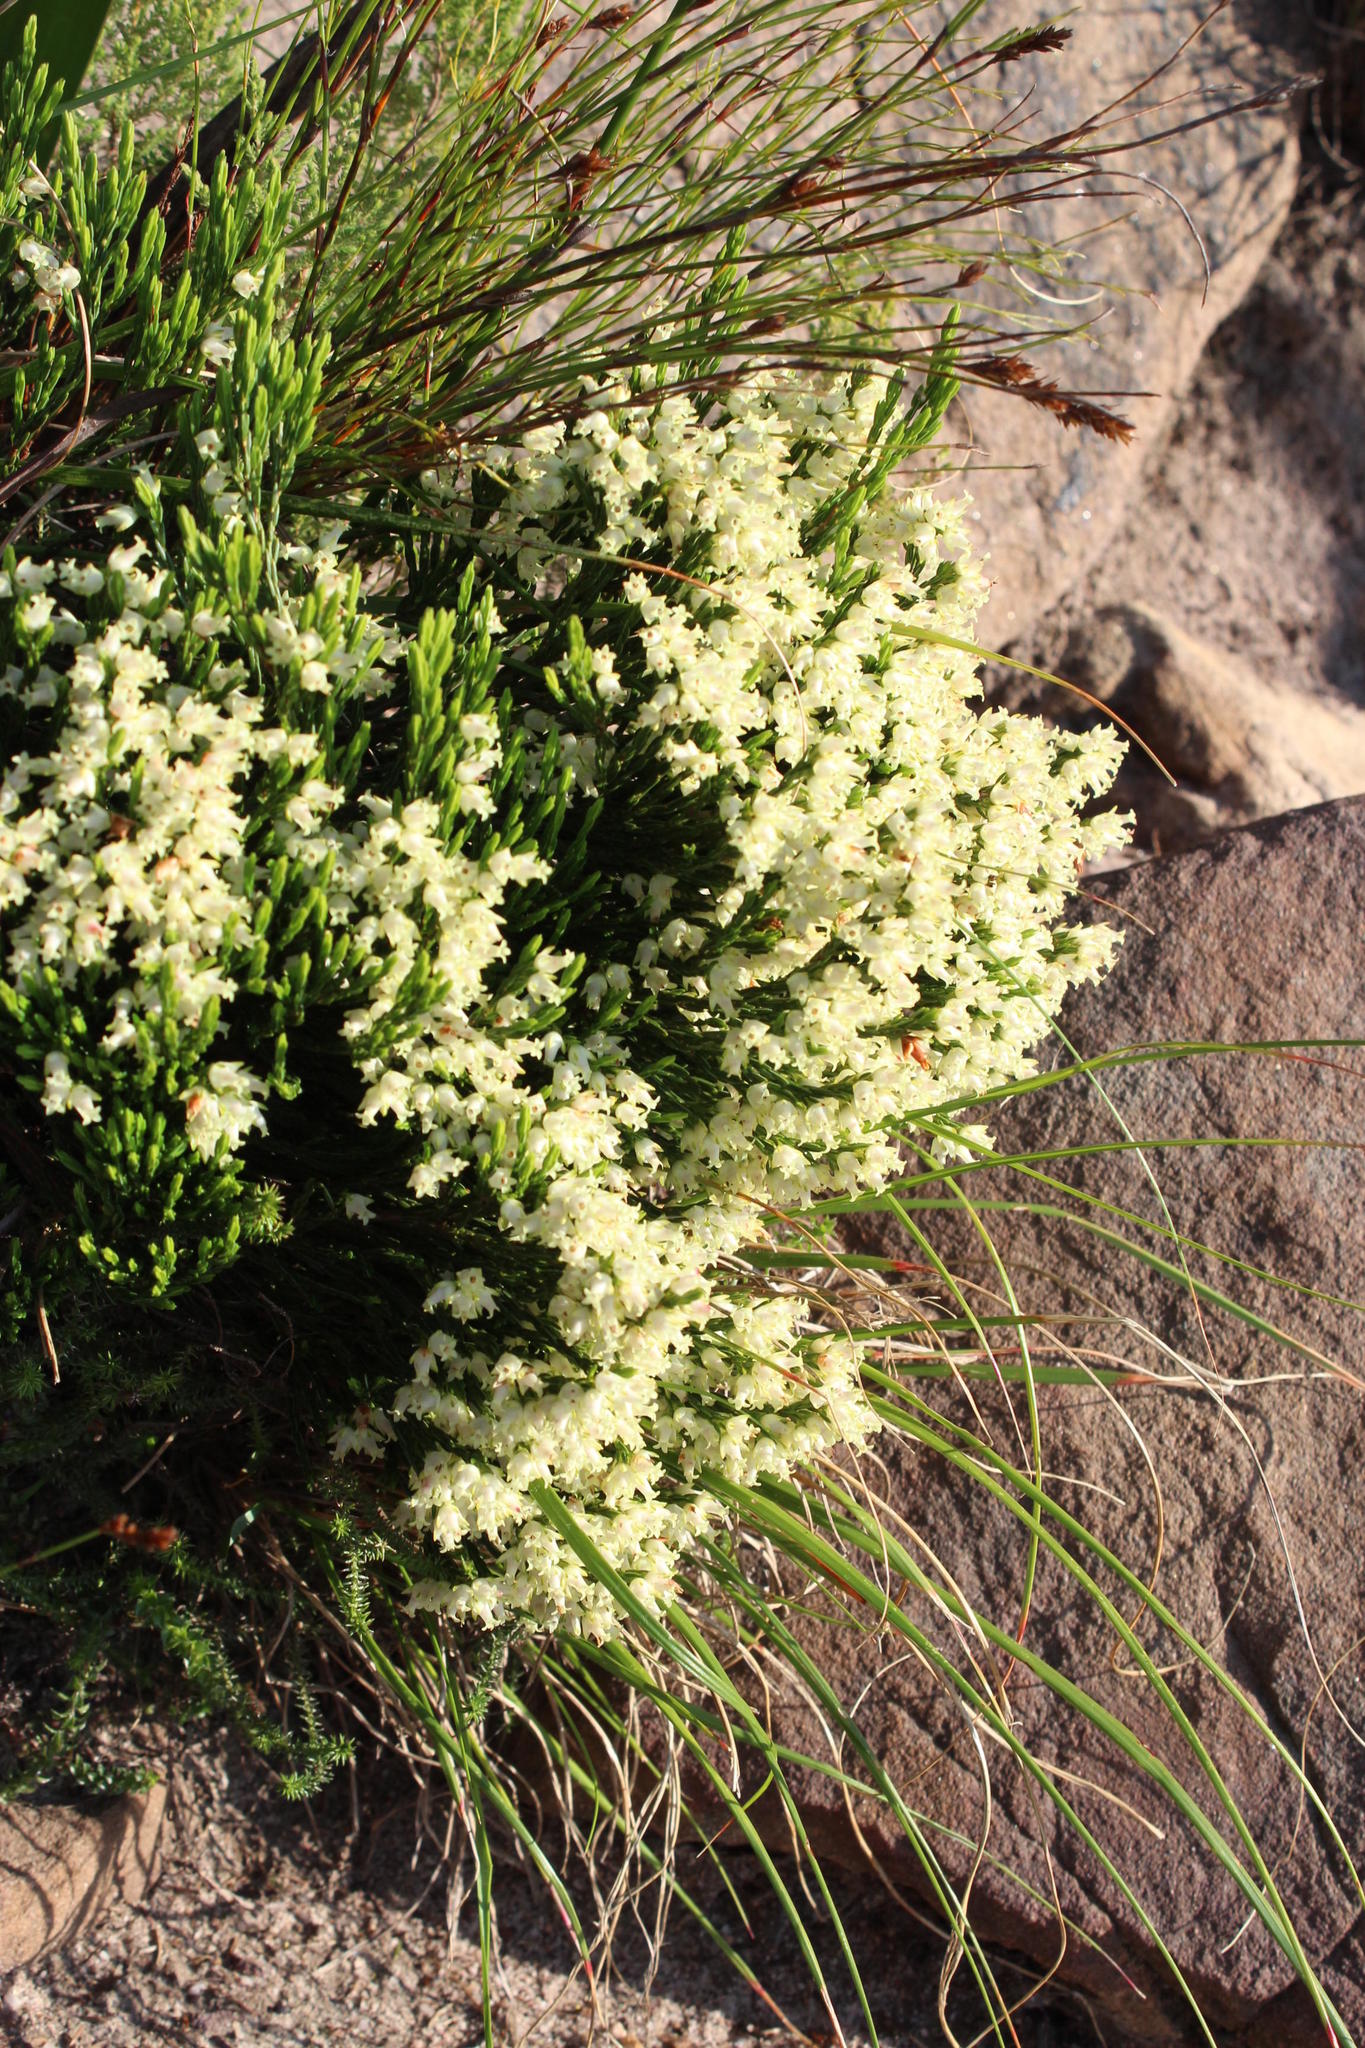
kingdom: Plantae
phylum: Tracheophyta
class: Magnoliopsida
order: Ericales
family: Ericaceae
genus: Erica
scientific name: Erica lutea
